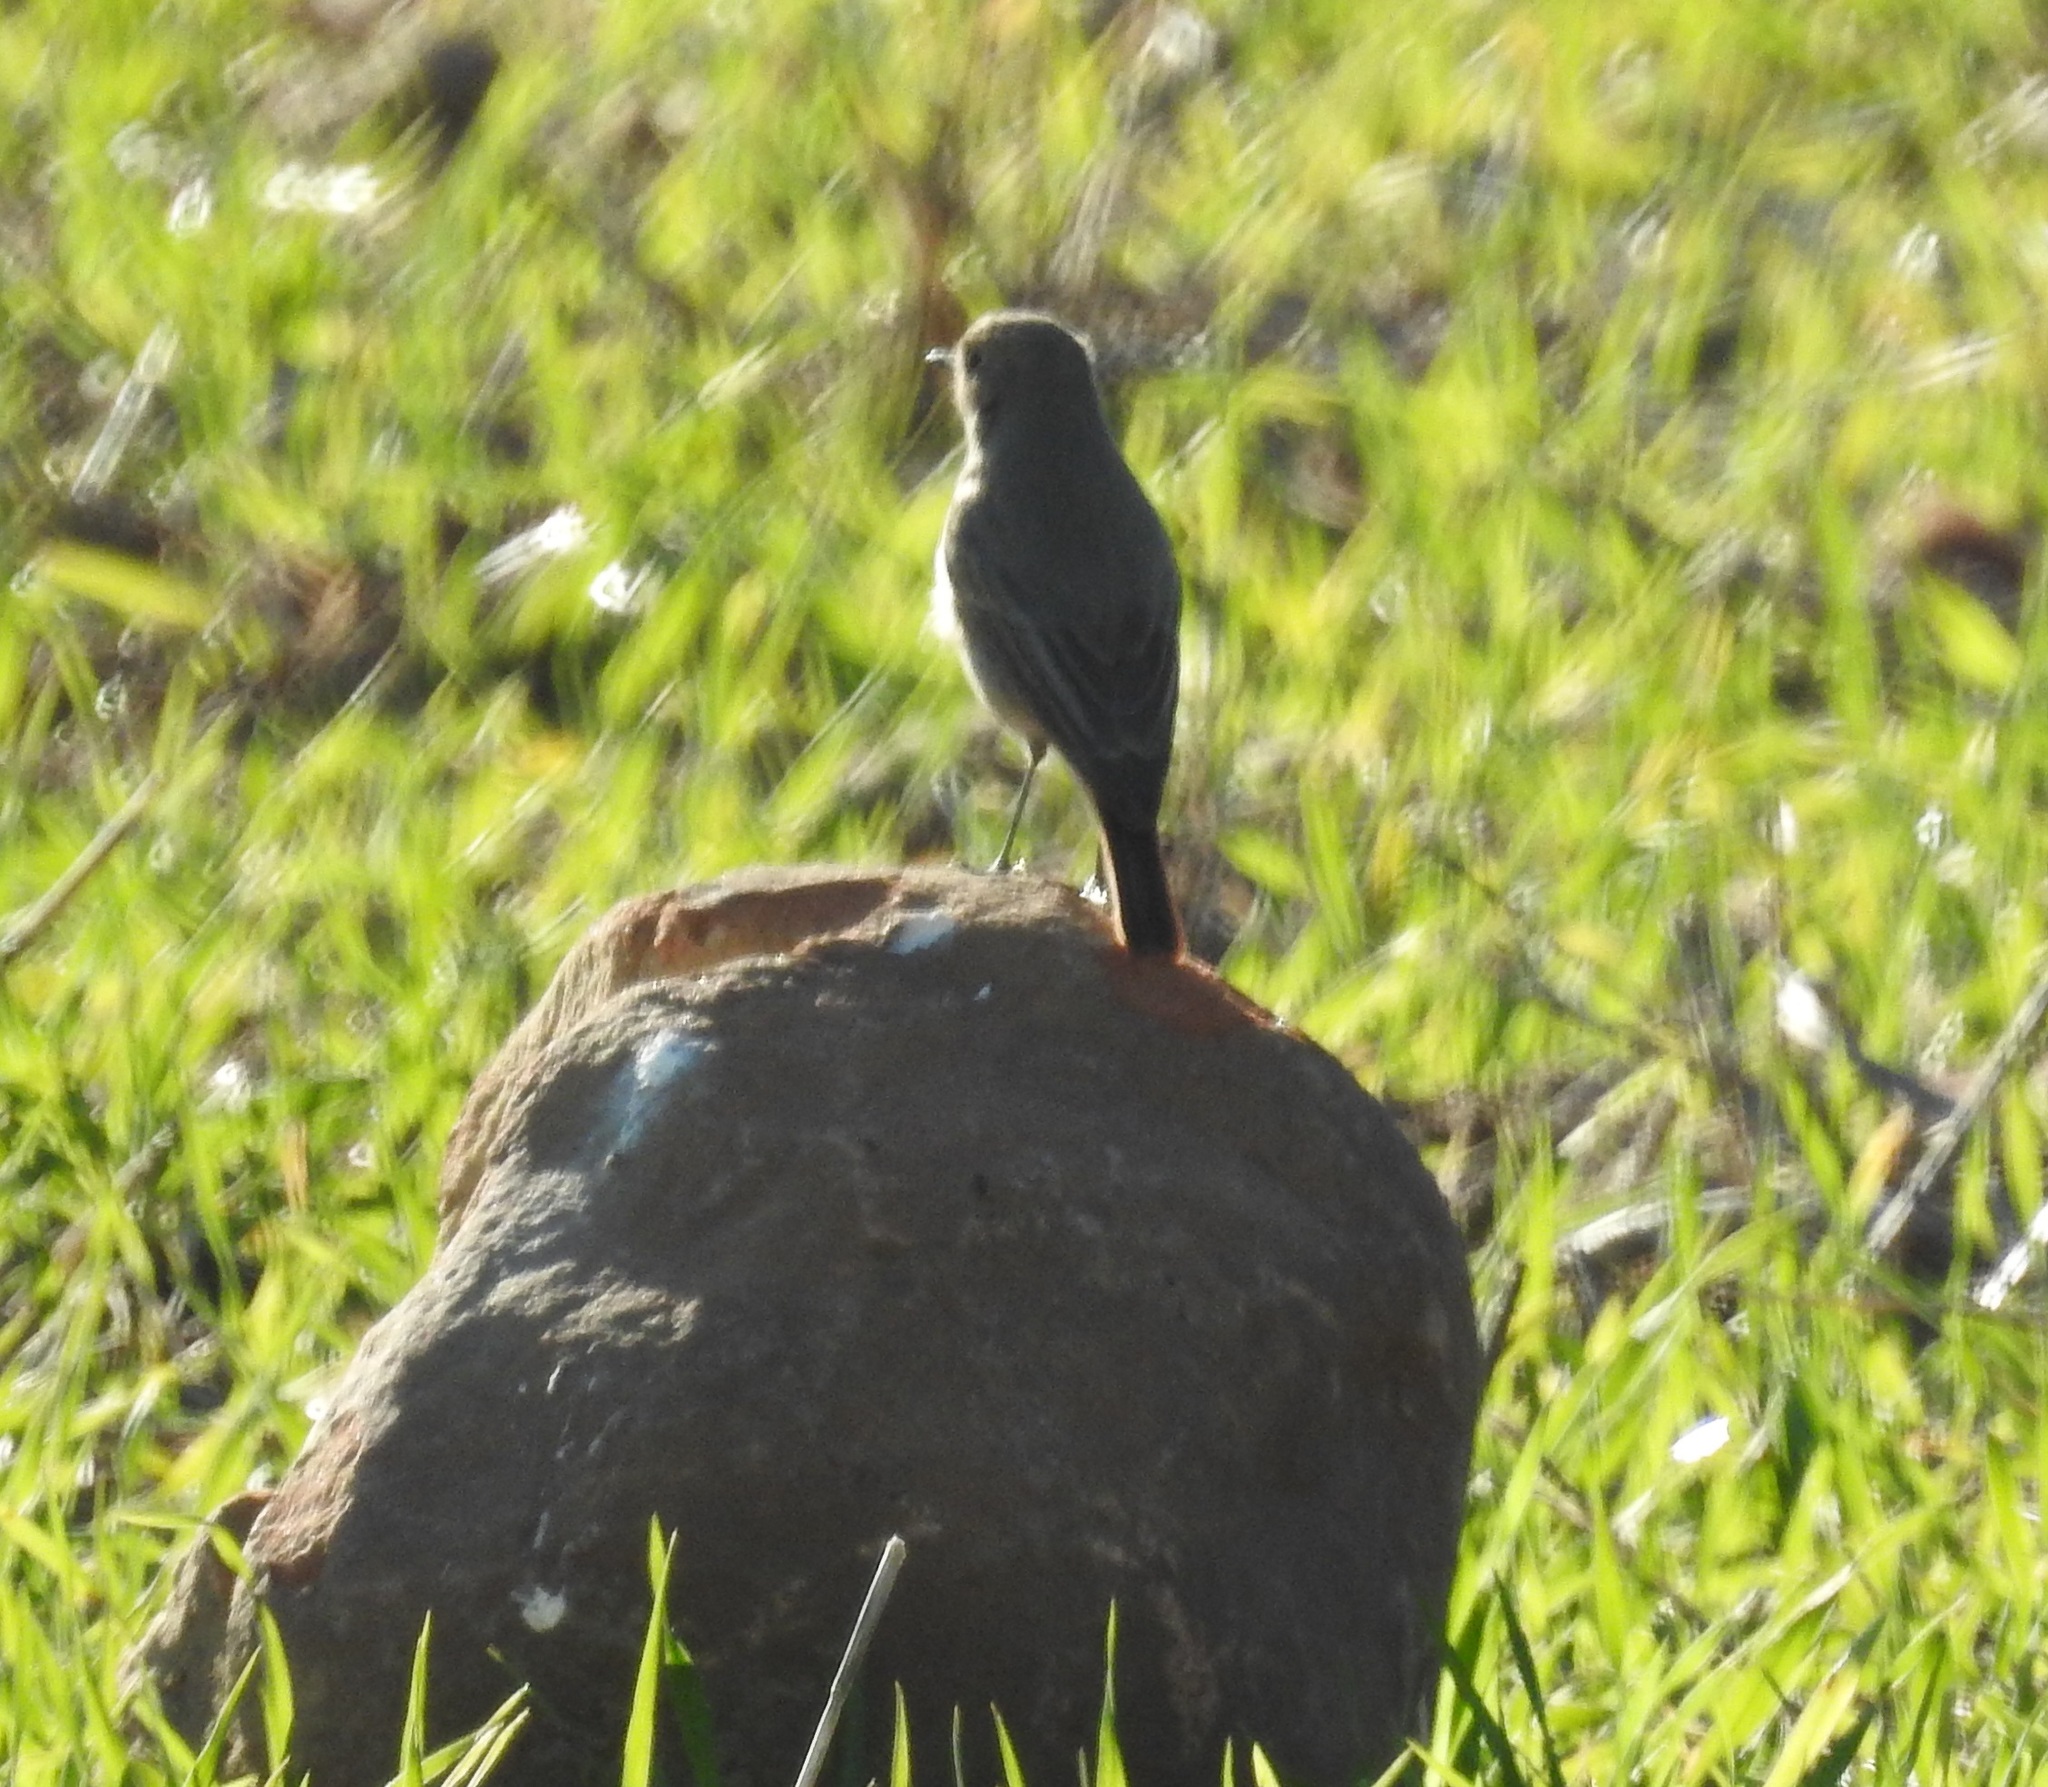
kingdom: Animalia
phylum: Chordata
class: Aves
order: Passeriformes
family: Muscicapidae
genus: Phoenicurus
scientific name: Phoenicurus ochruros
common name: Black redstart
